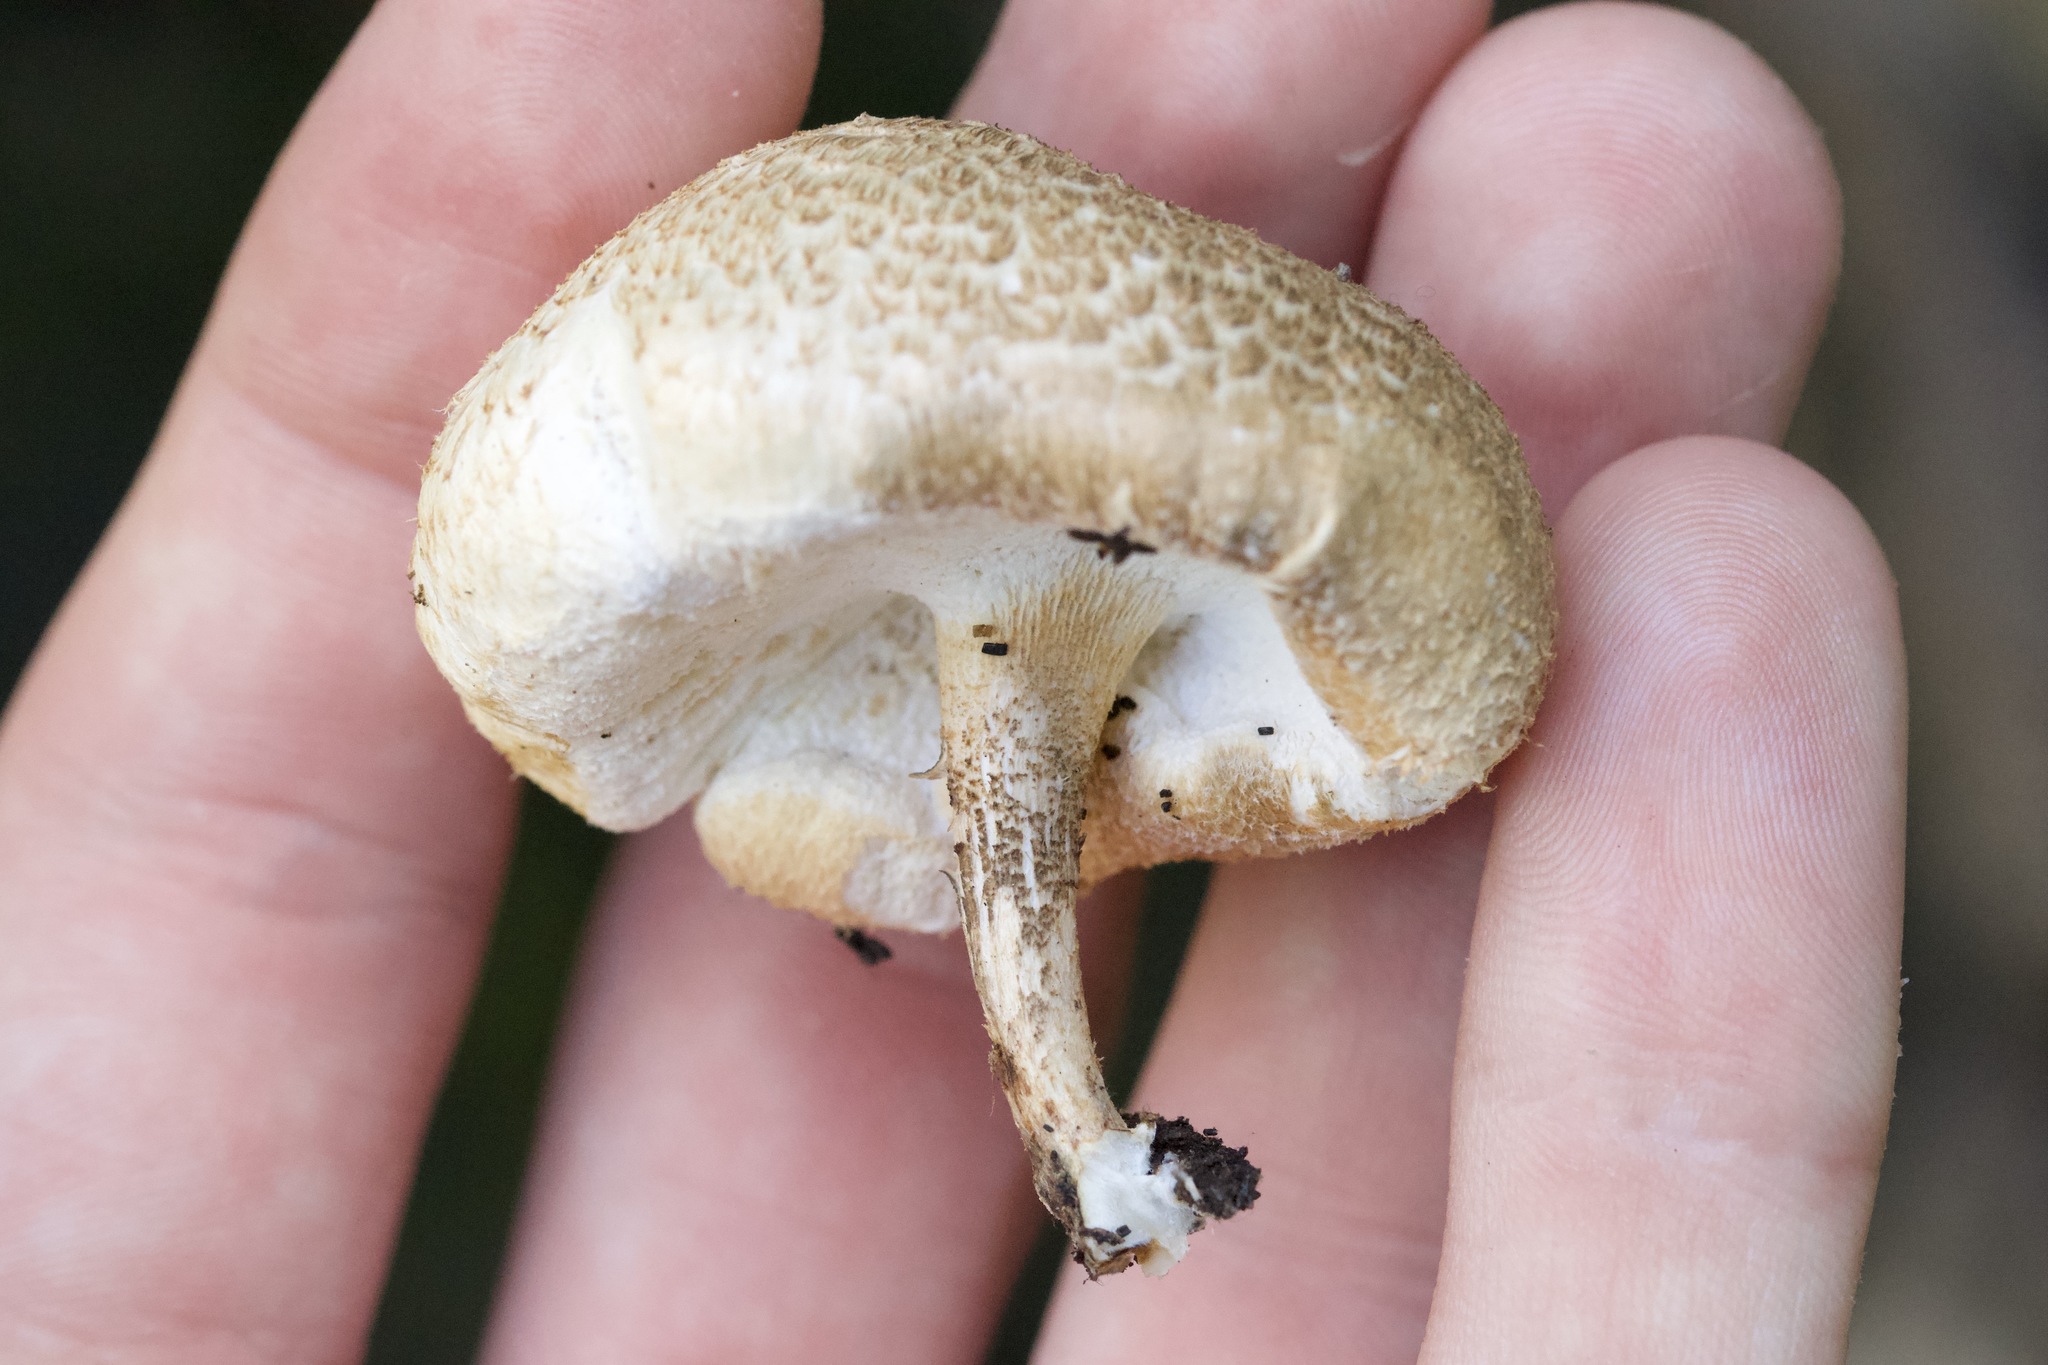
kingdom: Fungi
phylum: Basidiomycota
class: Agaricomycetes
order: Polyporales
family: Polyporaceae
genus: Lentinus
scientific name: Lentinus tigrinus
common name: Tiger sawgill
